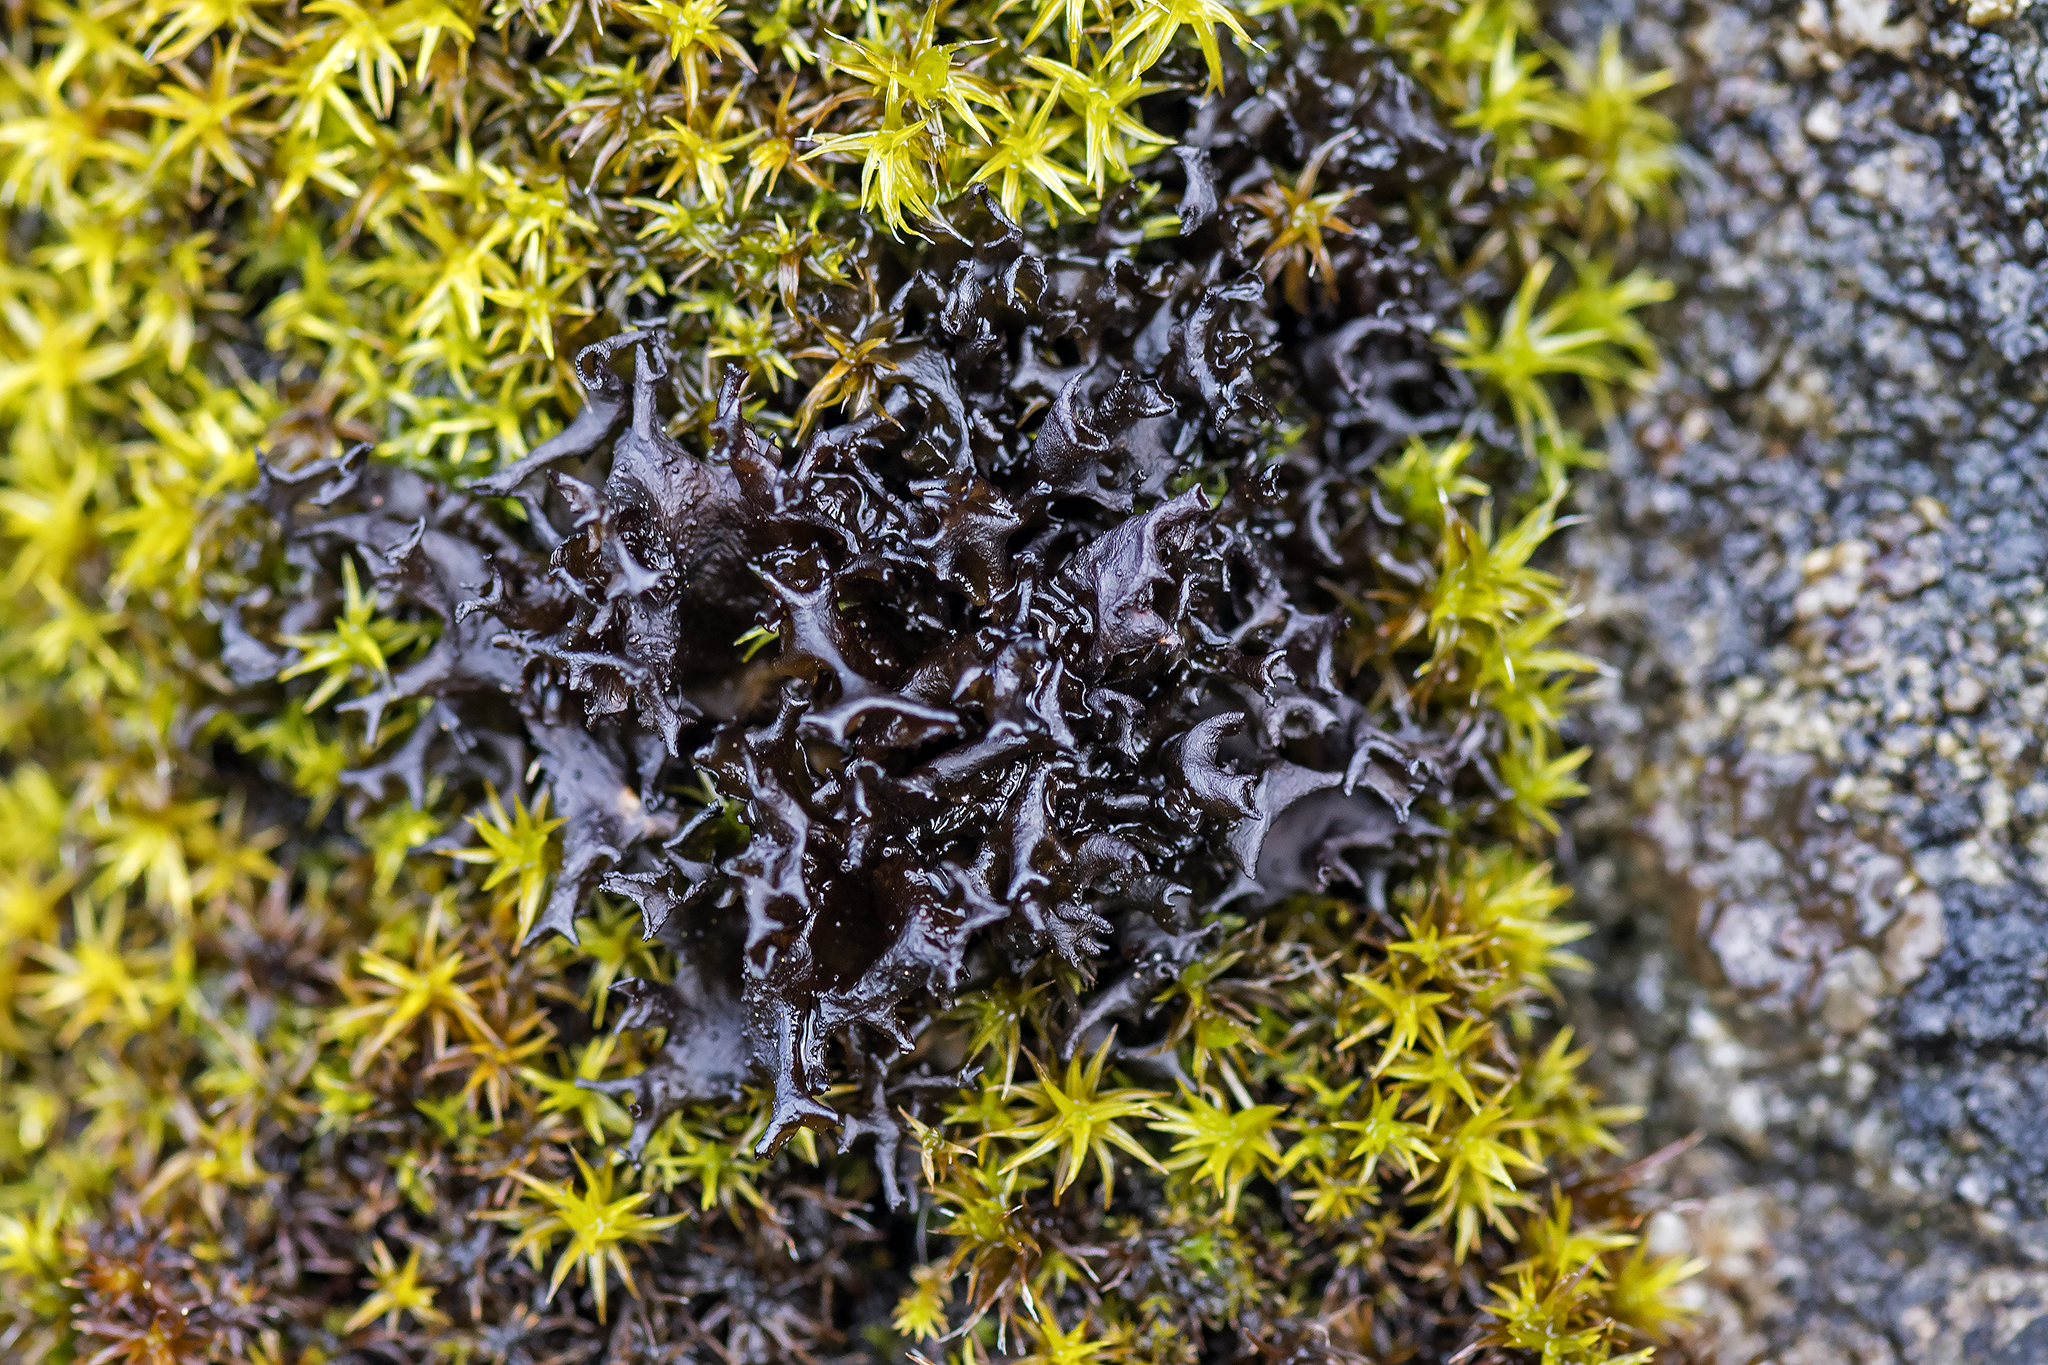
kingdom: Fungi
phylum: Ascomycota
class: Lecanoromycetes
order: Peltigerales
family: Collemataceae
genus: Scytinium
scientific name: Scytinium palmatum
